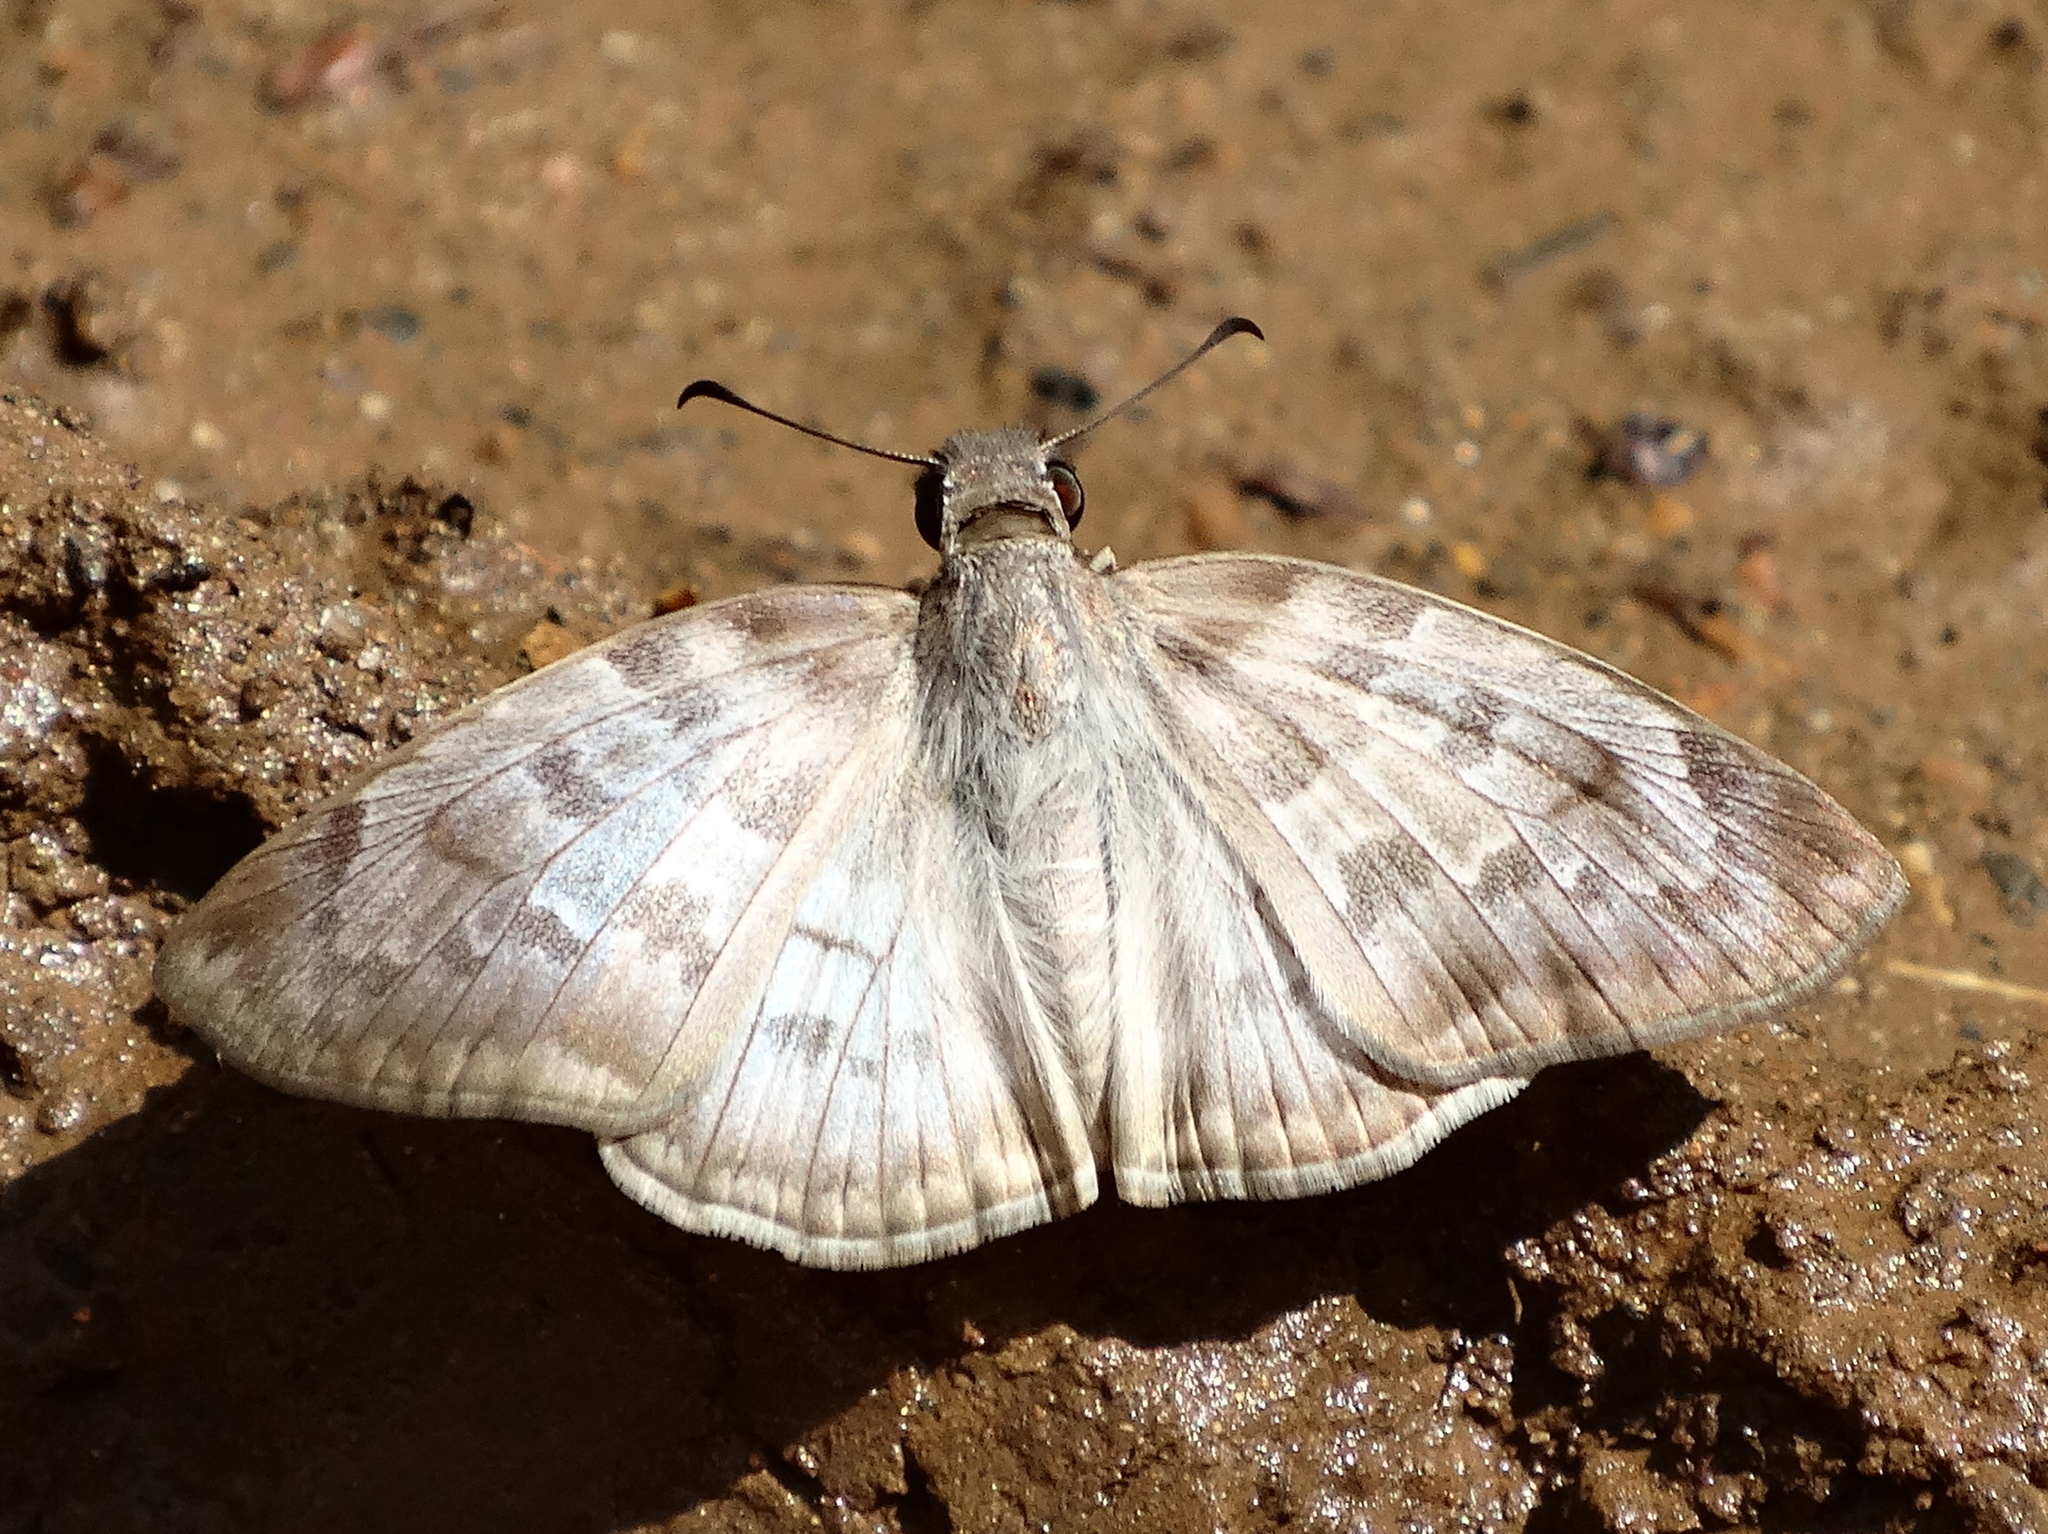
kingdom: Animalia
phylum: Arthropoda
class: Insecta
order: Lepidoptera
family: Hesperiidae
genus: Mylon
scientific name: Mylon pelopidas
